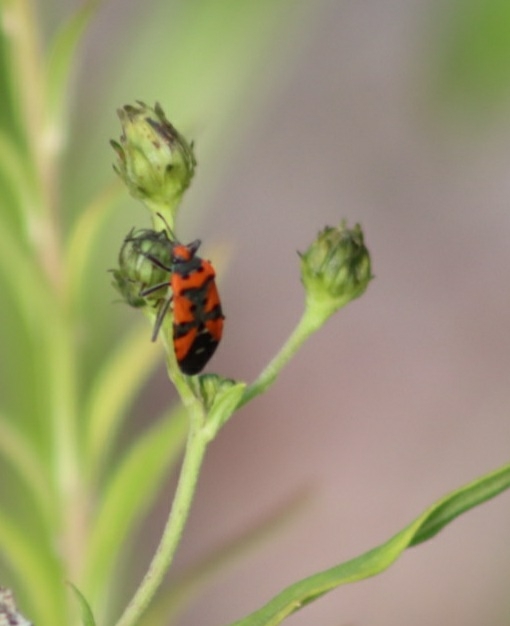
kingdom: Animalia
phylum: Arthropoda
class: Insecta
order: Hemiptera
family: Lygaeidae
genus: Lygaeus
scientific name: Lygaeus equestris
